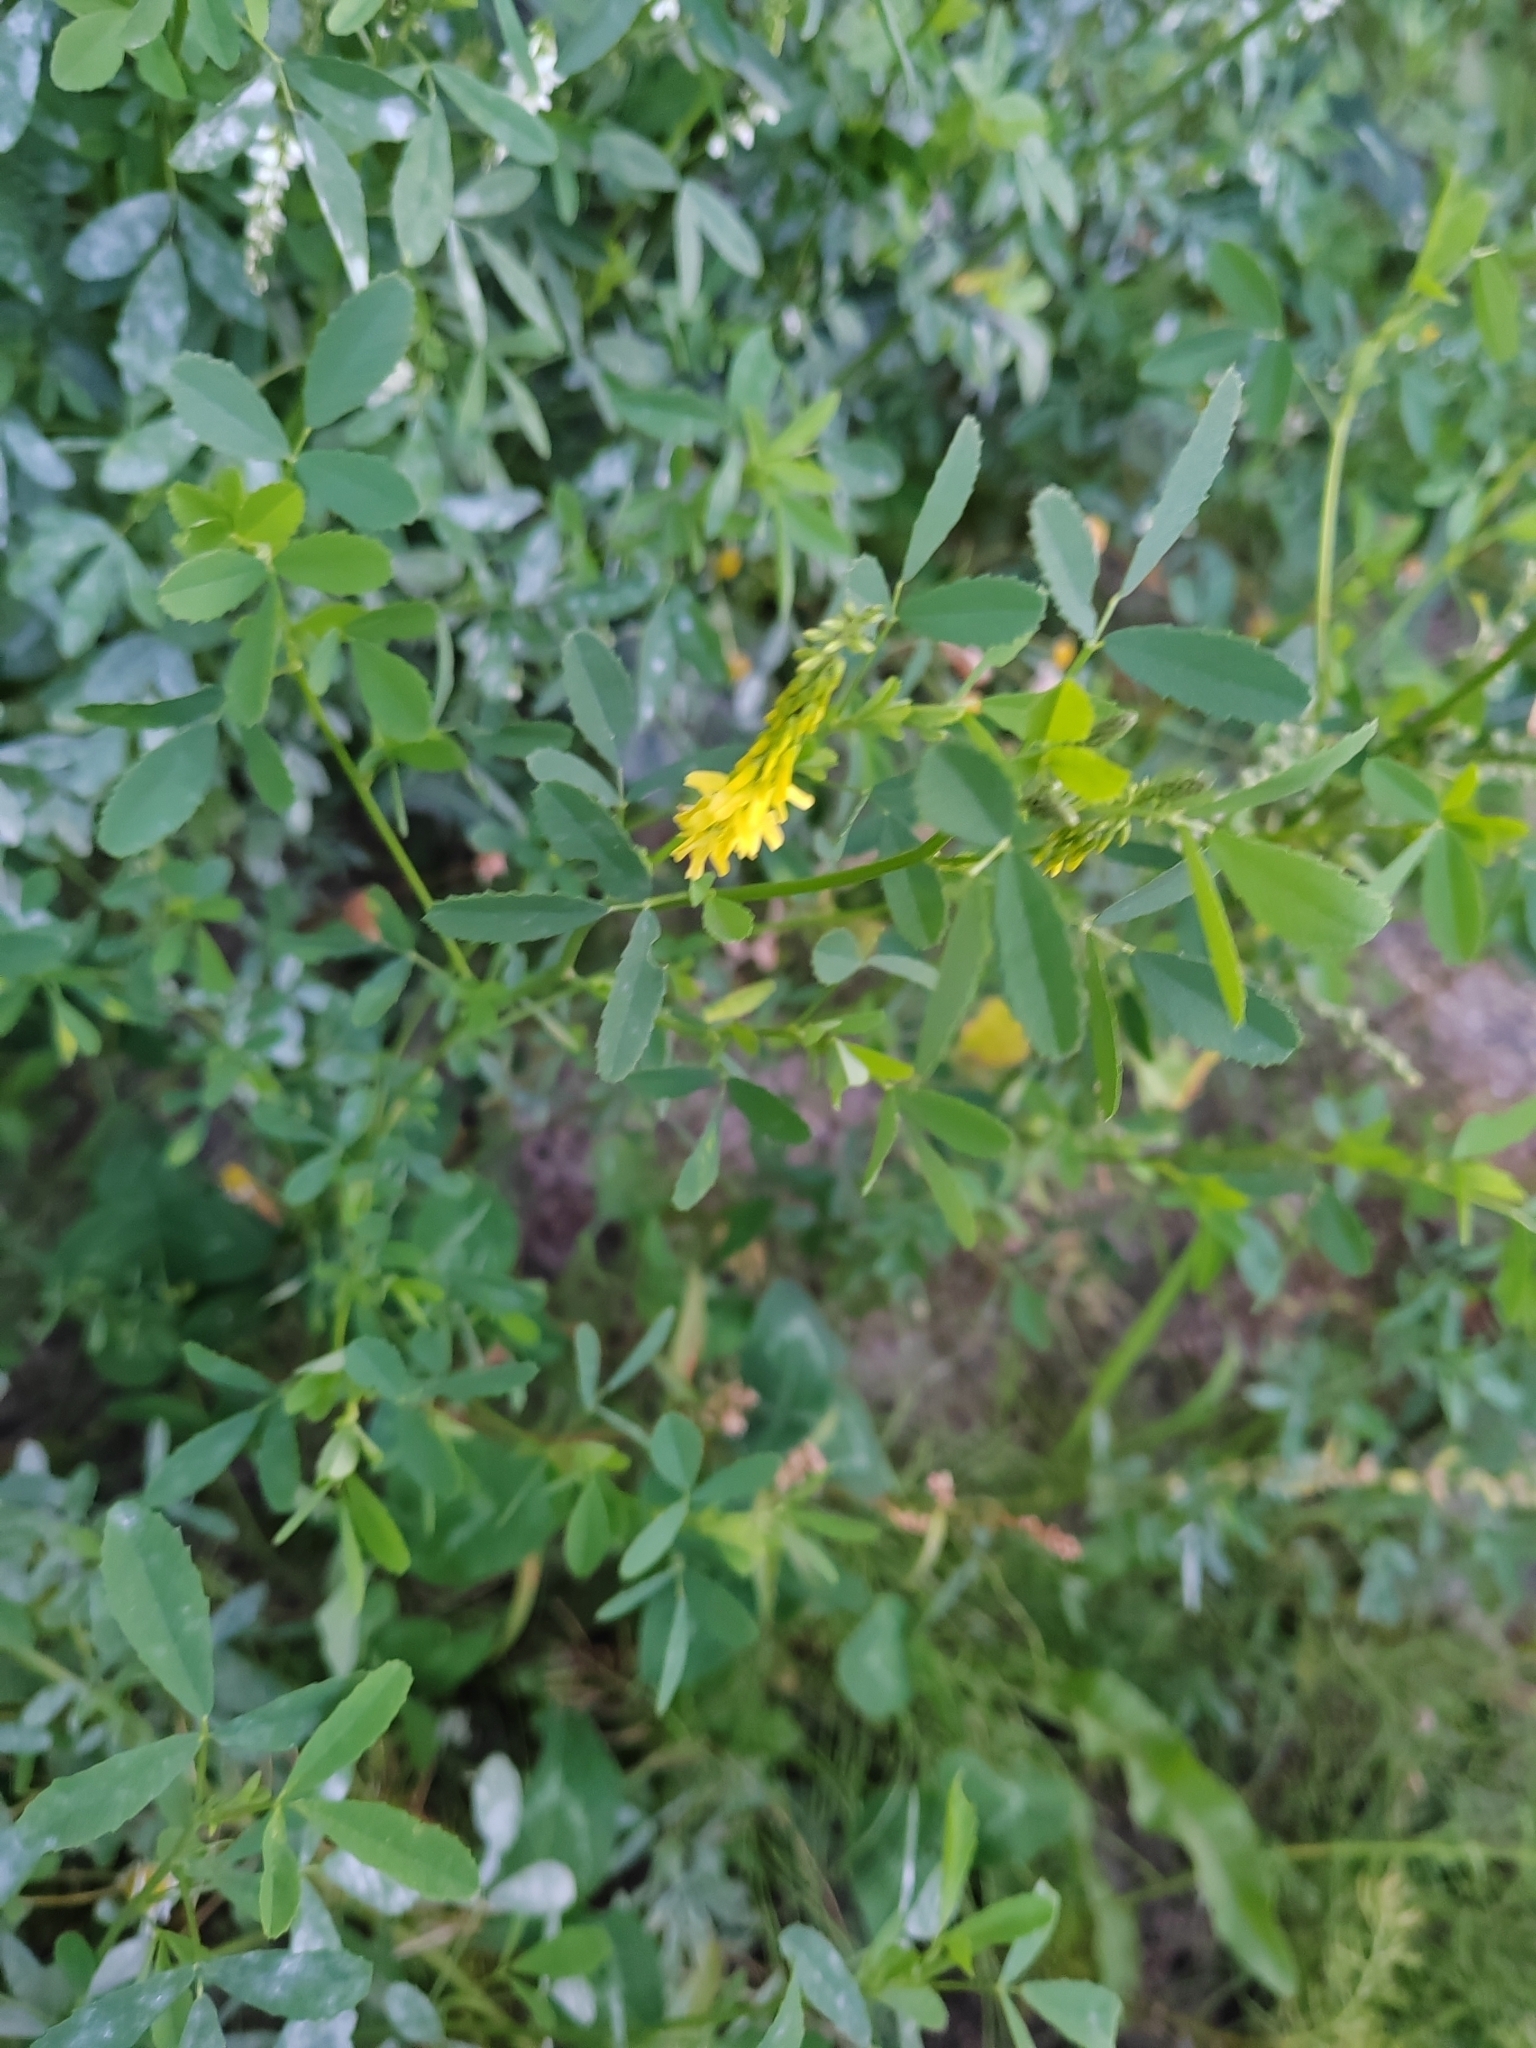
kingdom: Plantae
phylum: Tracheophyta
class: Magnoliopsida
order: Fabales
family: Fabaceae
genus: Melilotus
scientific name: Melilotus officinalis
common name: Sweetclover
